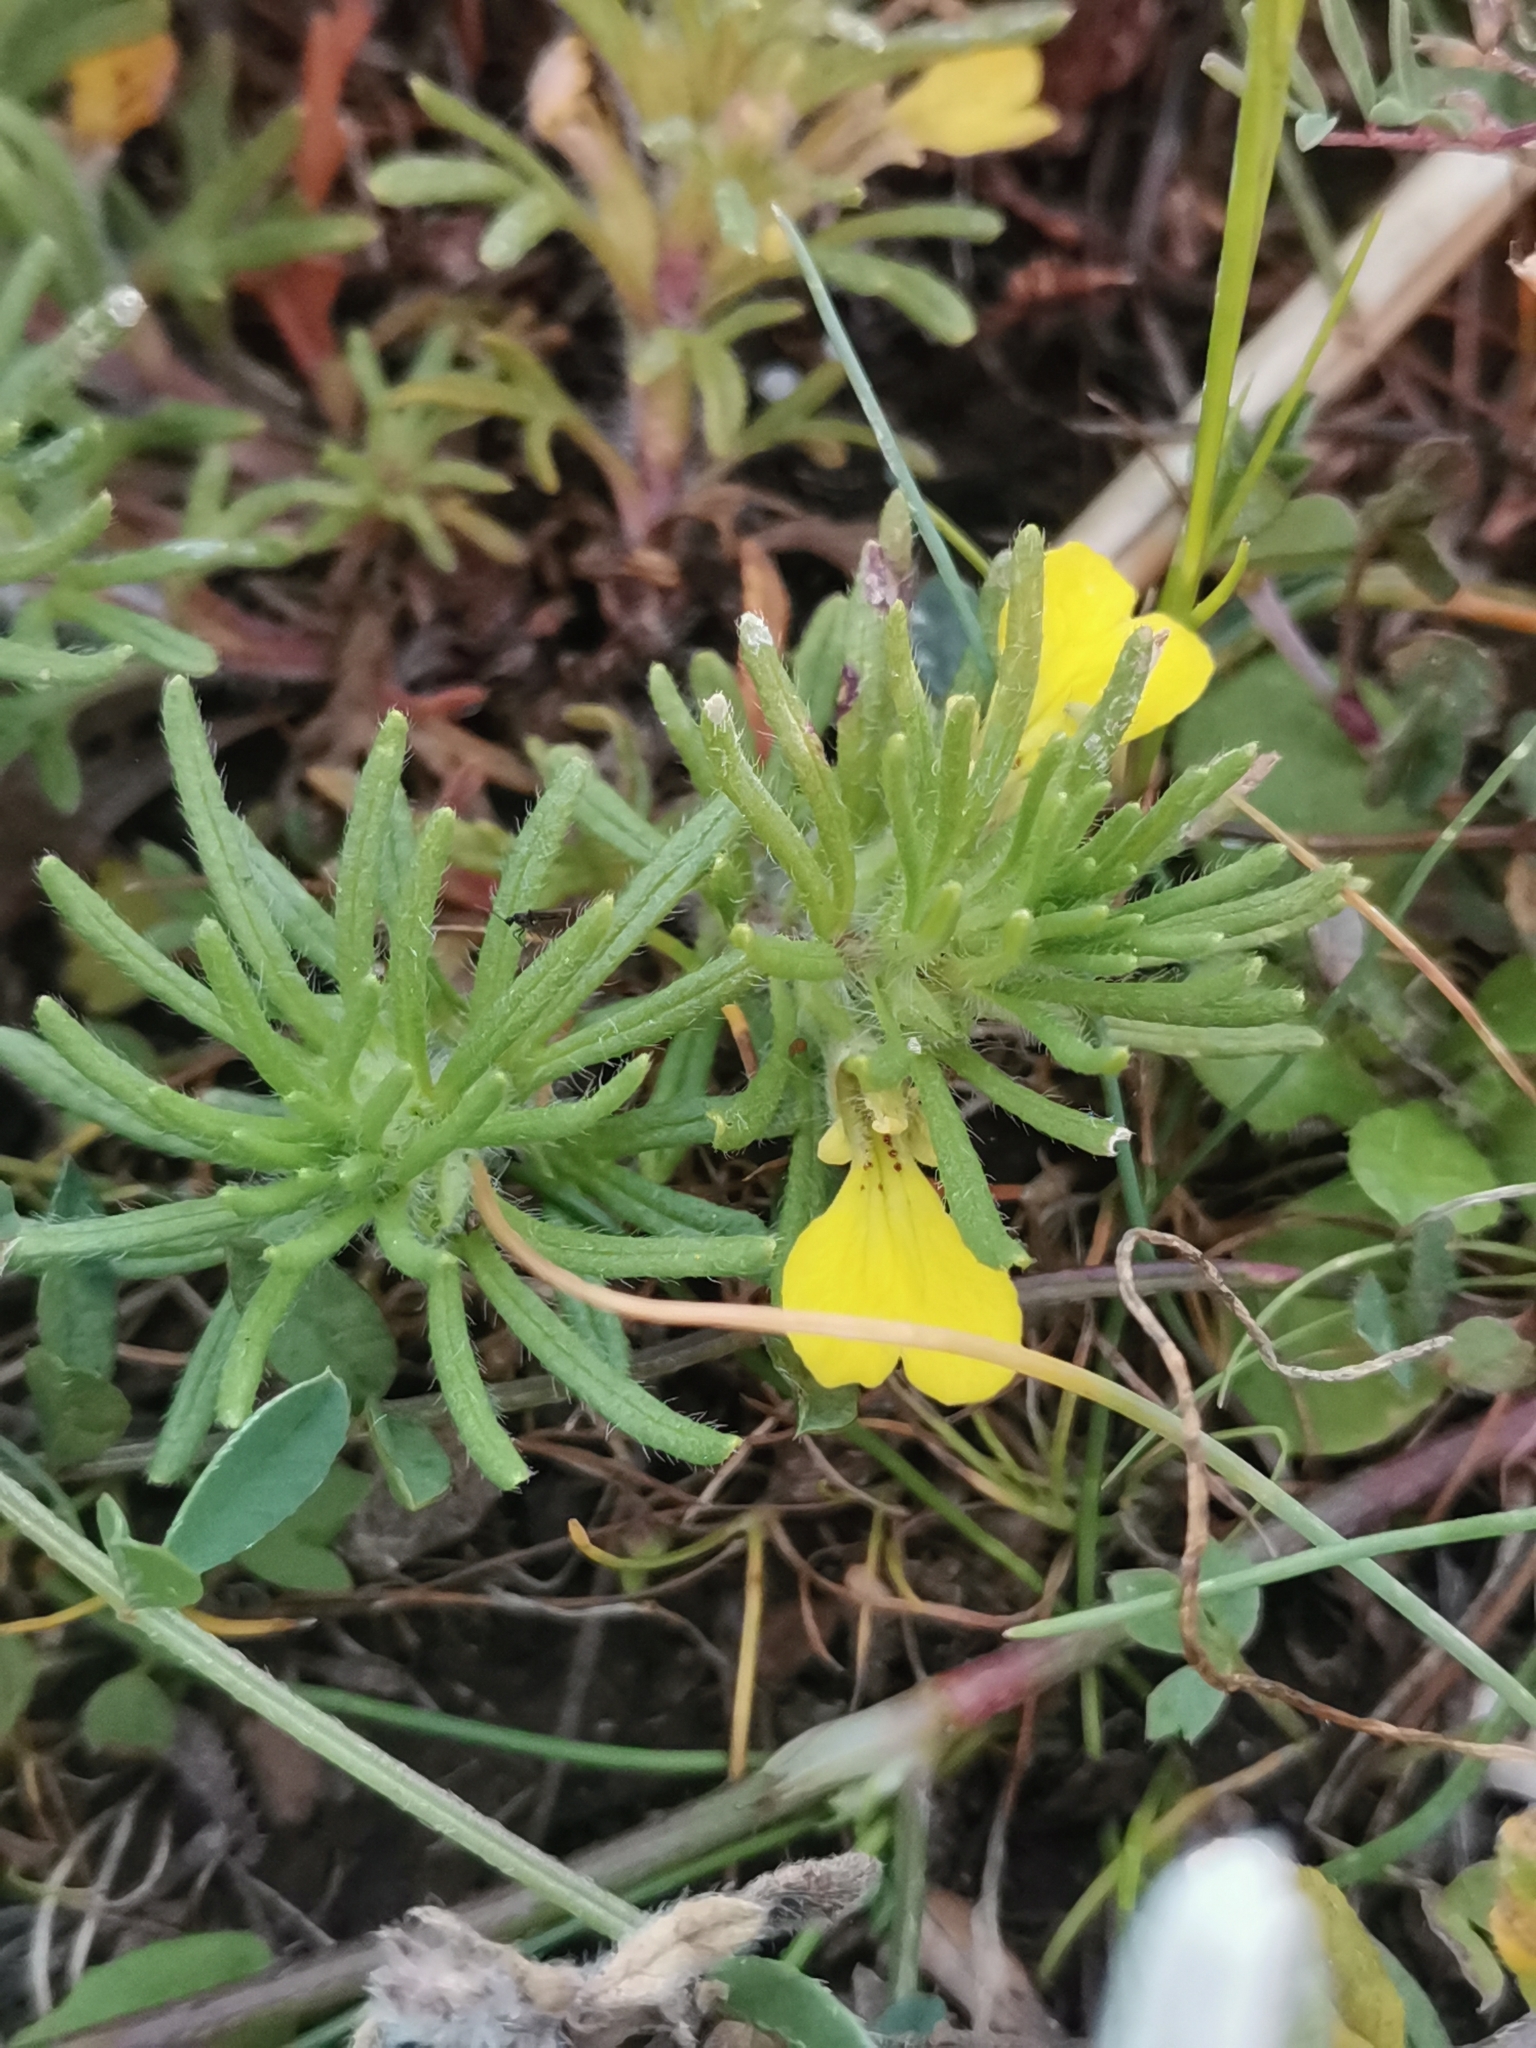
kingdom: Plantae
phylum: Tracheophyta
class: Magnoliopsida
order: Lamiales
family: Lamiaceae
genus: Ajuga
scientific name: Ajuga chamaepitys
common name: Ground-pine
